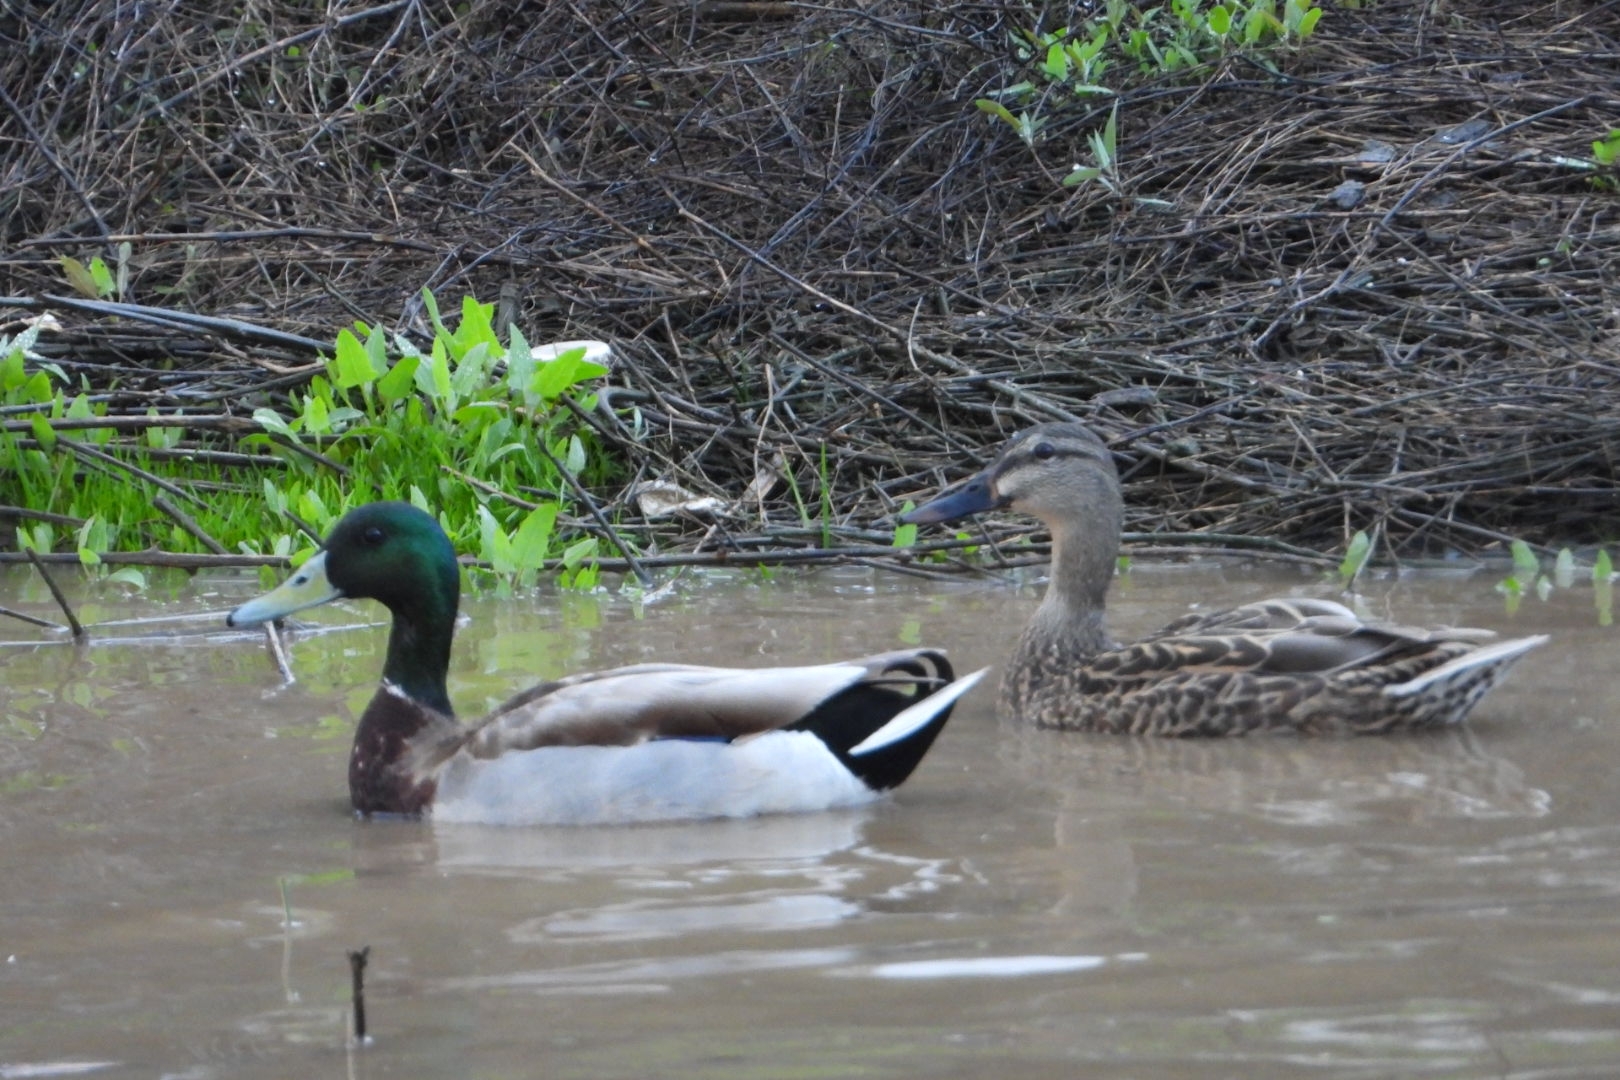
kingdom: Animalia
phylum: Chordata
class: Aves
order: Anseriformes
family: Anatidae
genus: Anas
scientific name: Anas platyrhynchos
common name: Mallard
